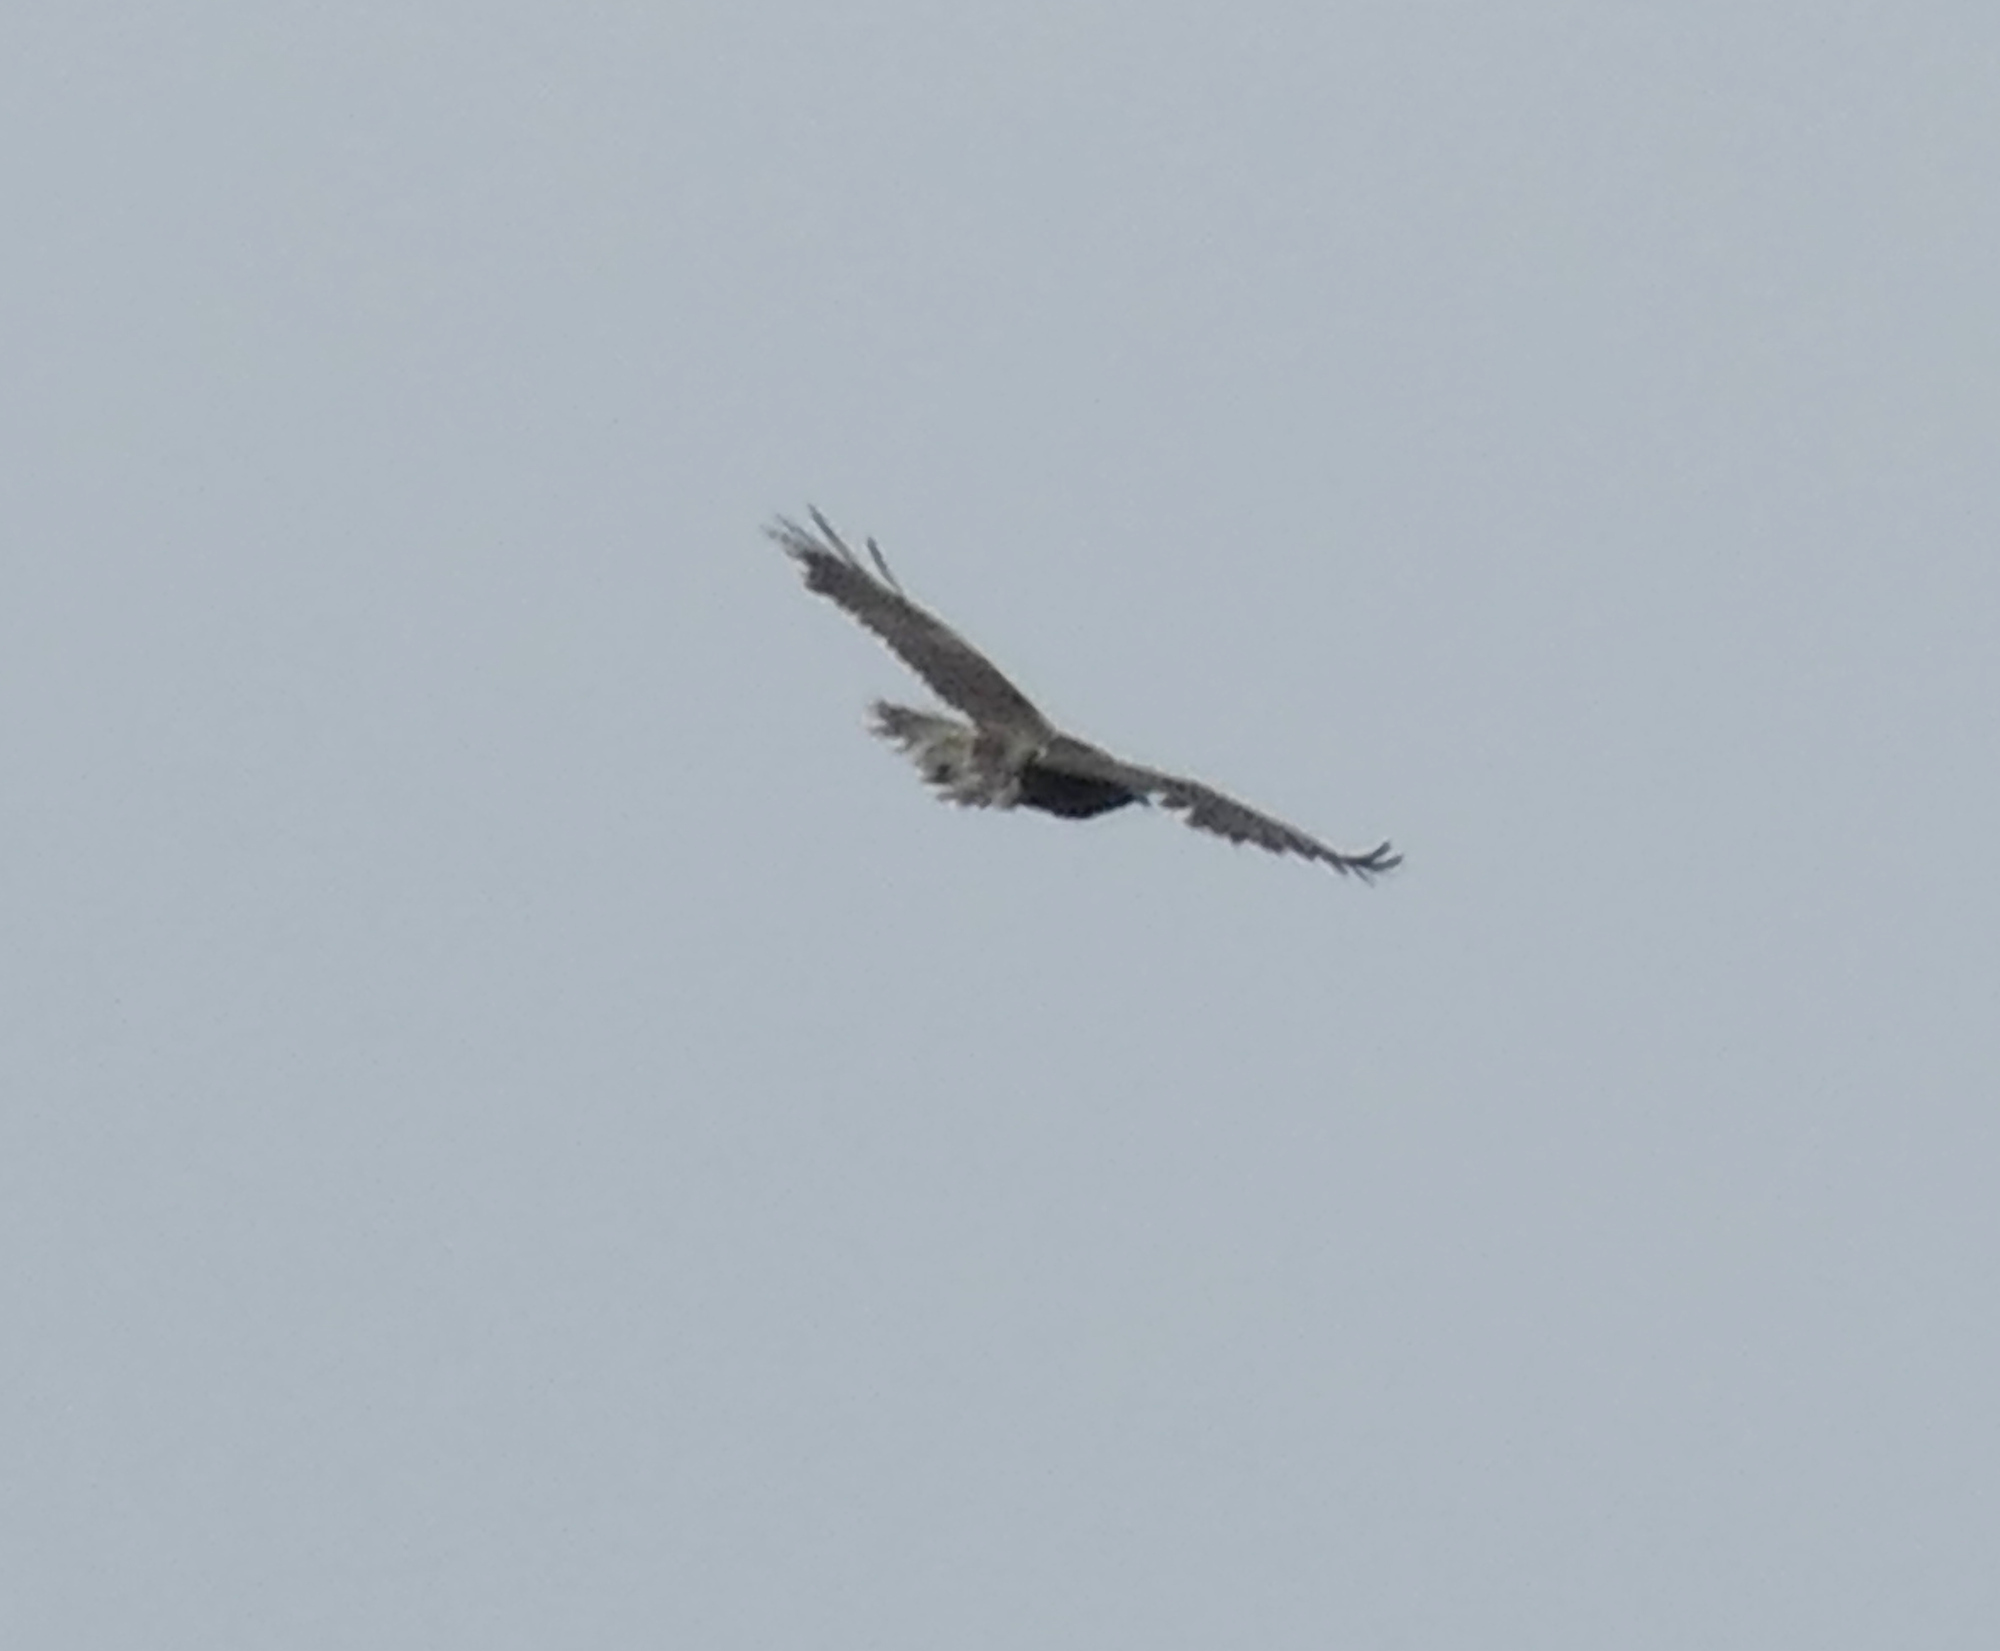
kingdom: Animalia
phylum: Chordata
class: Aves
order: Accipitriformes
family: Accipitridae
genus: Buteo
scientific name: Buteo albicaudatus
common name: White-tailed hawk
